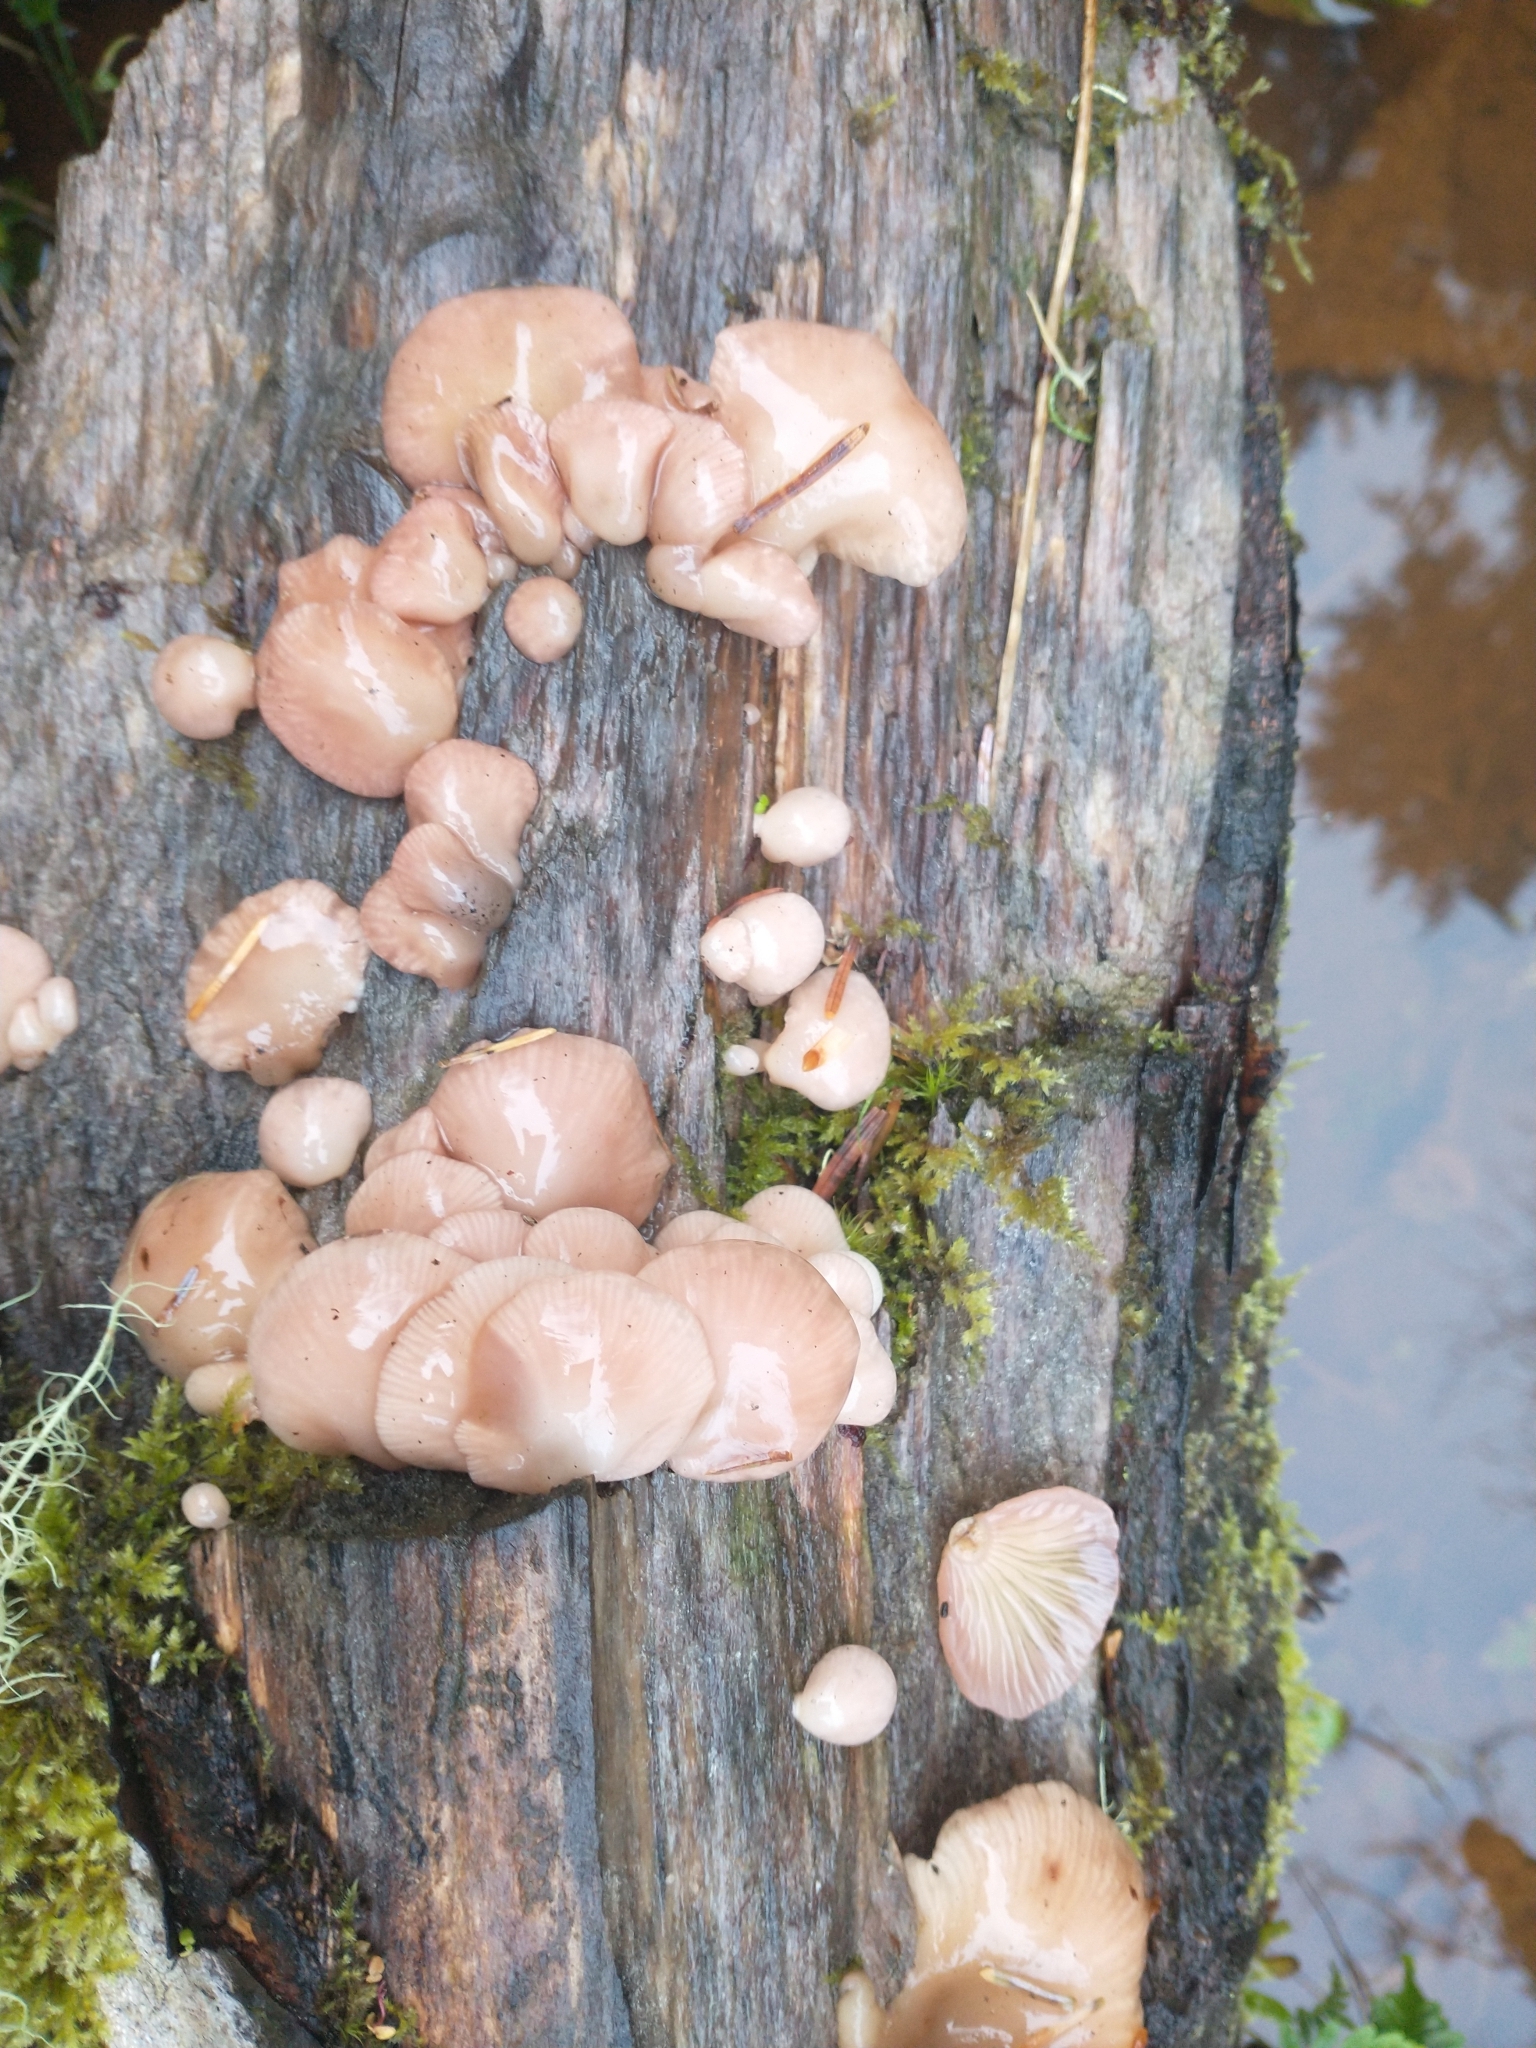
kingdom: Fungi
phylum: Basidiomycota
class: Agaricomycetes
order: Agaricales
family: Mycenaceae
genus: Panellus
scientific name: Panellus longinquus
